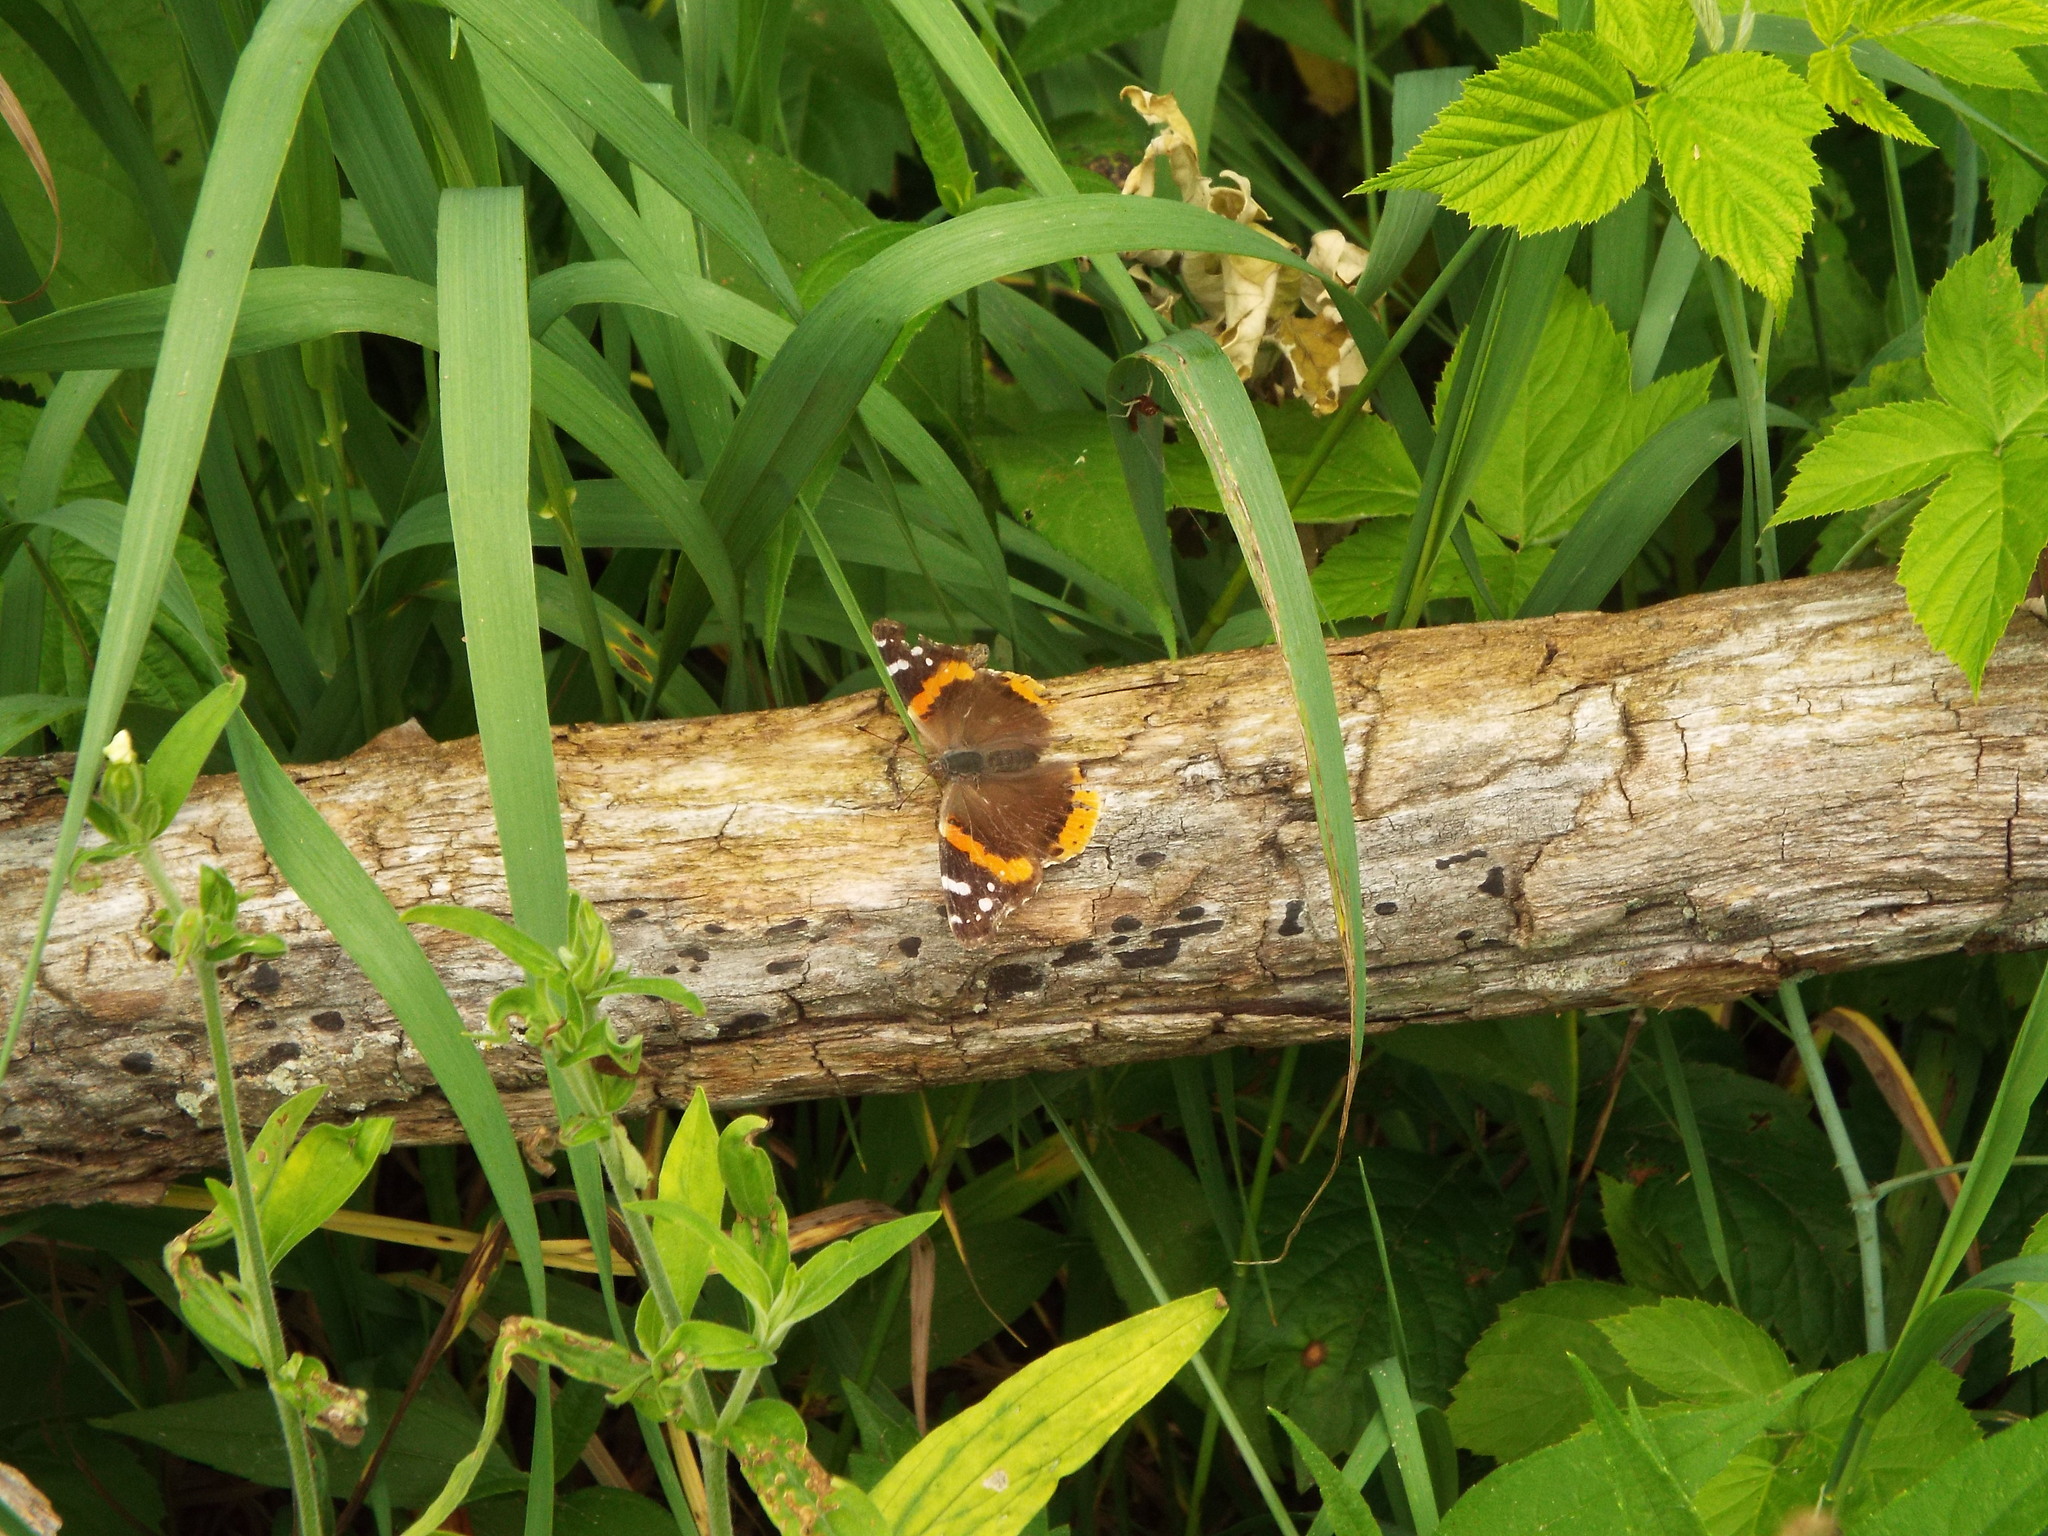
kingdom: Animalia
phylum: Arthropoda
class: Insecta
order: Lepidoptera
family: Nymphalidae
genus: Vanessa
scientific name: Vanessa atalanta
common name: Red admiral
